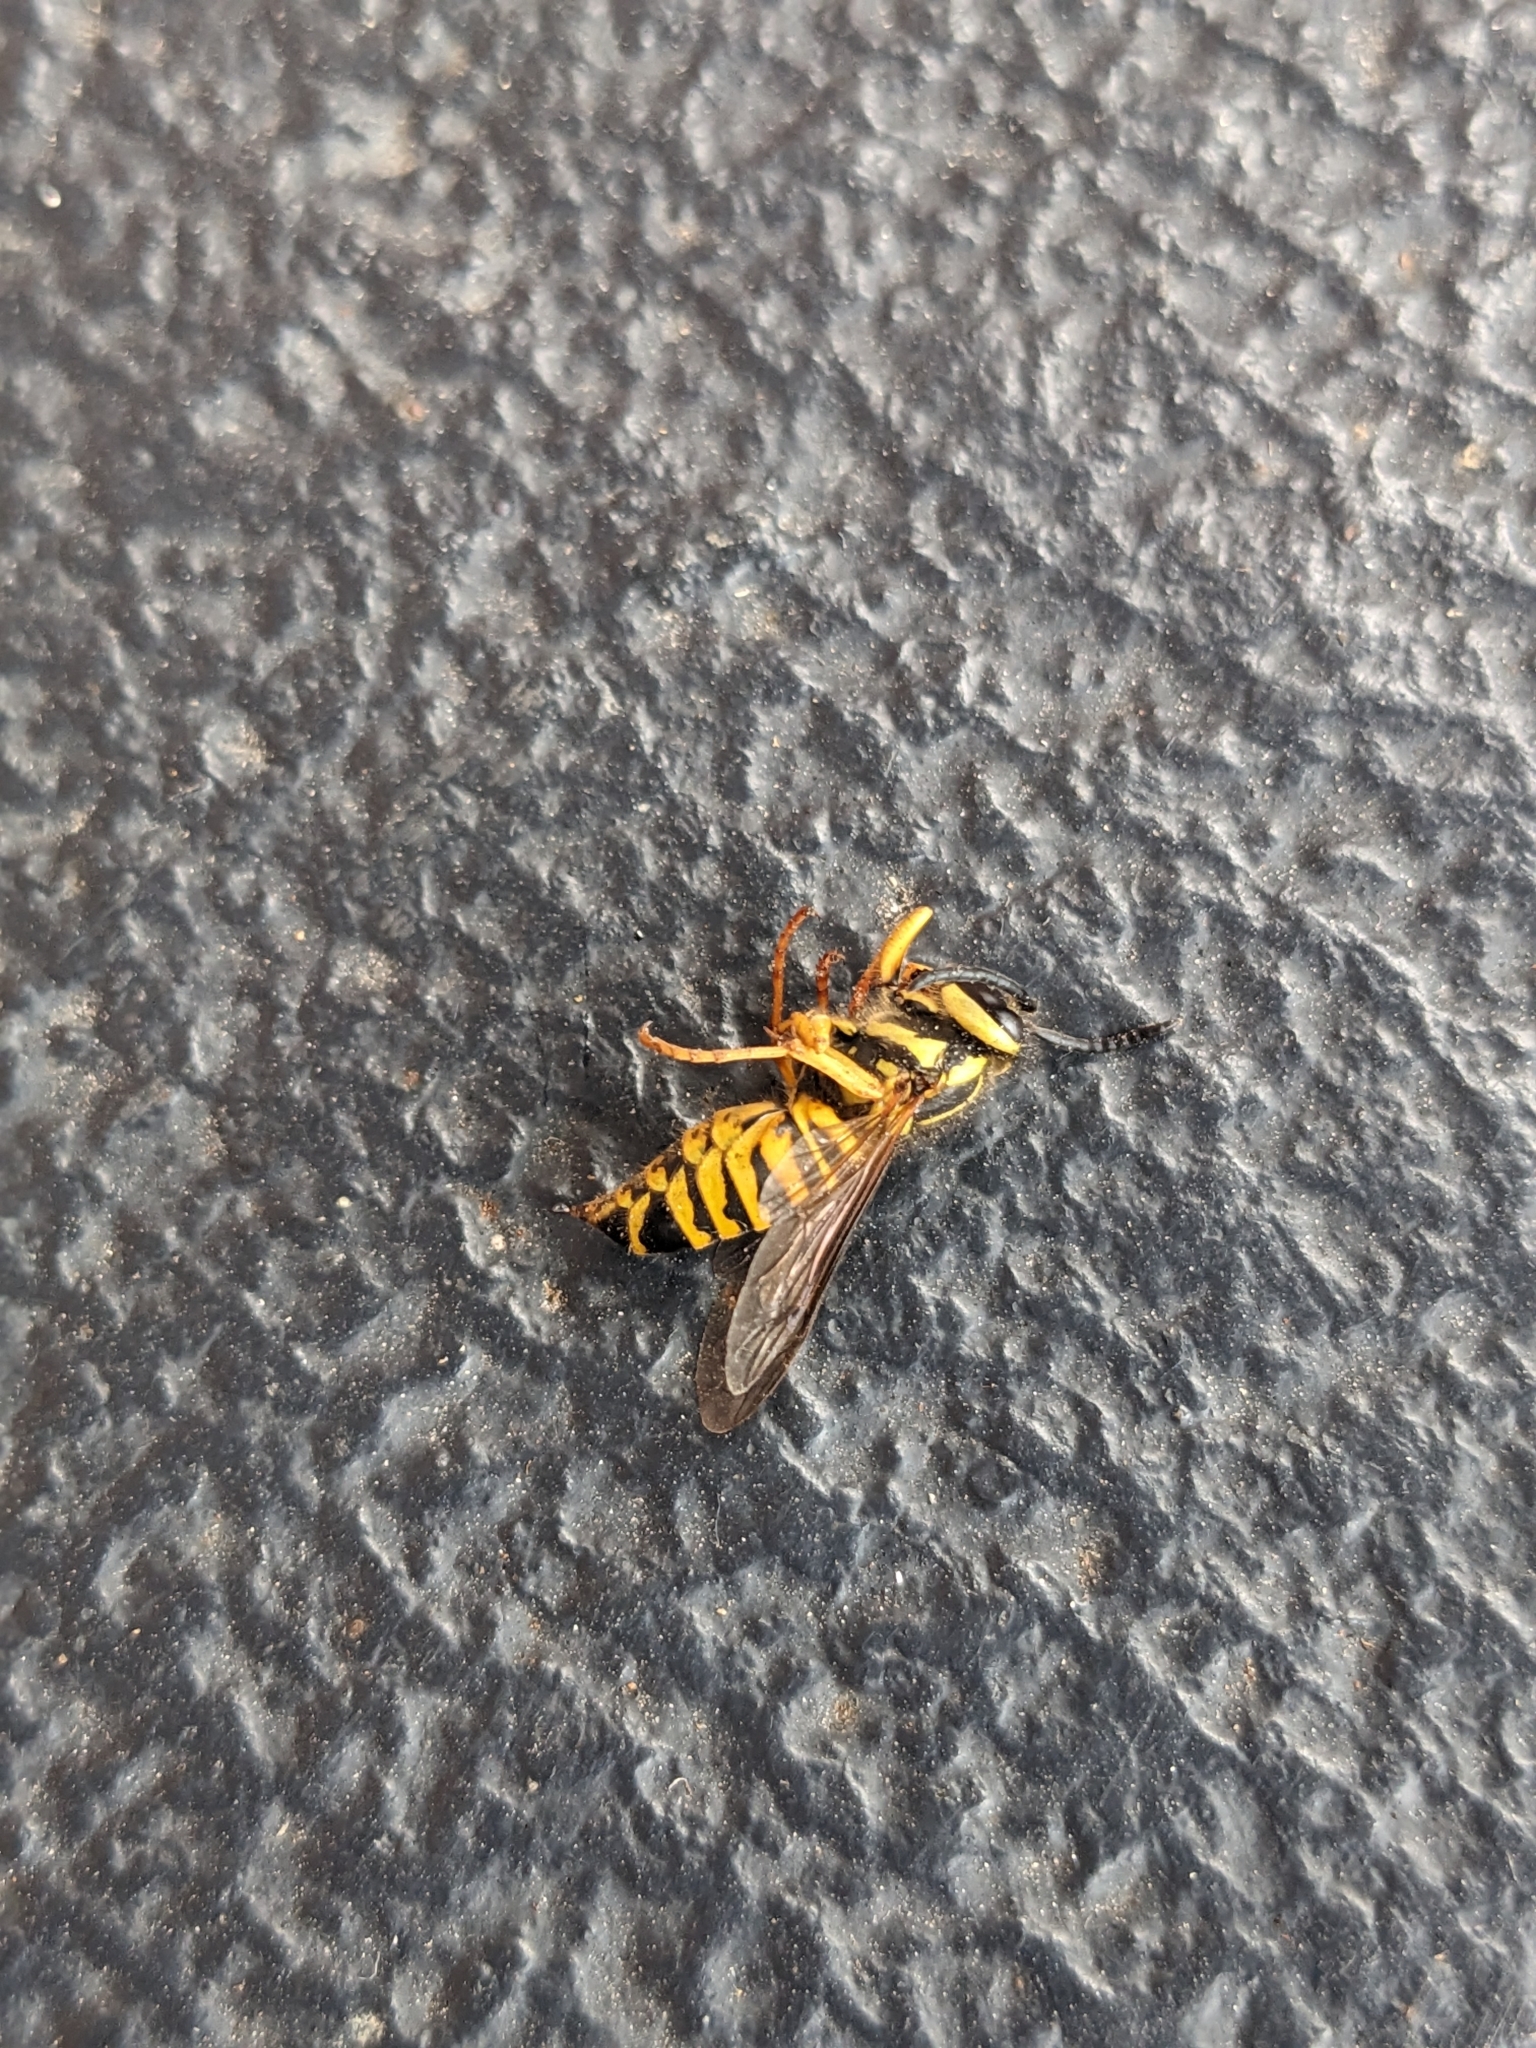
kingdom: Animalia
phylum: Arthropoda
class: Insecta
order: Hymenoptera
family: Vespidae
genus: Vespula
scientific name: Vespula squamosa
